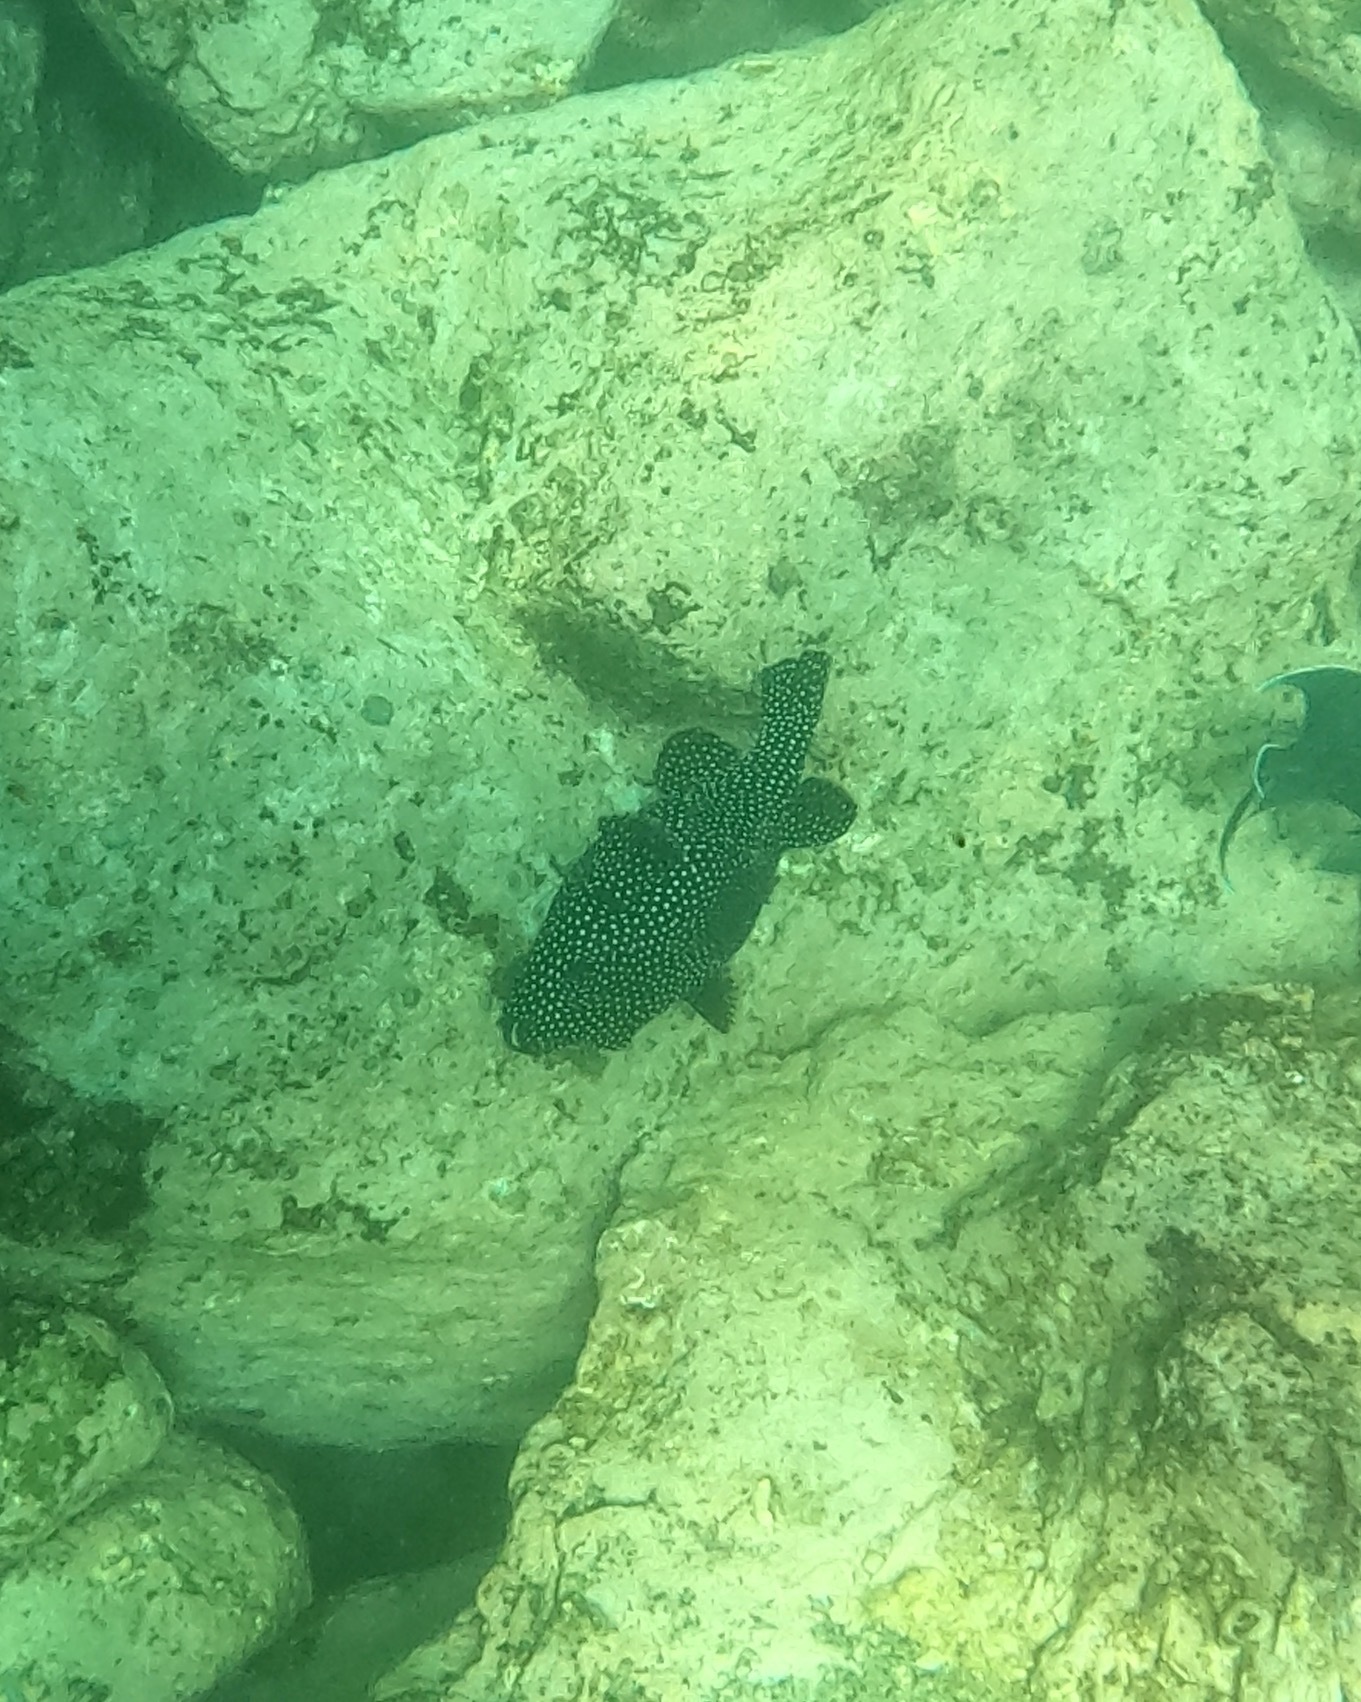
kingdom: Animalia
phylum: Chordata
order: Tetraodontiformes
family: Tetraodontidae
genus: Arothron
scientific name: Arothron meleagris
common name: Guinea-fowl pufferfish
